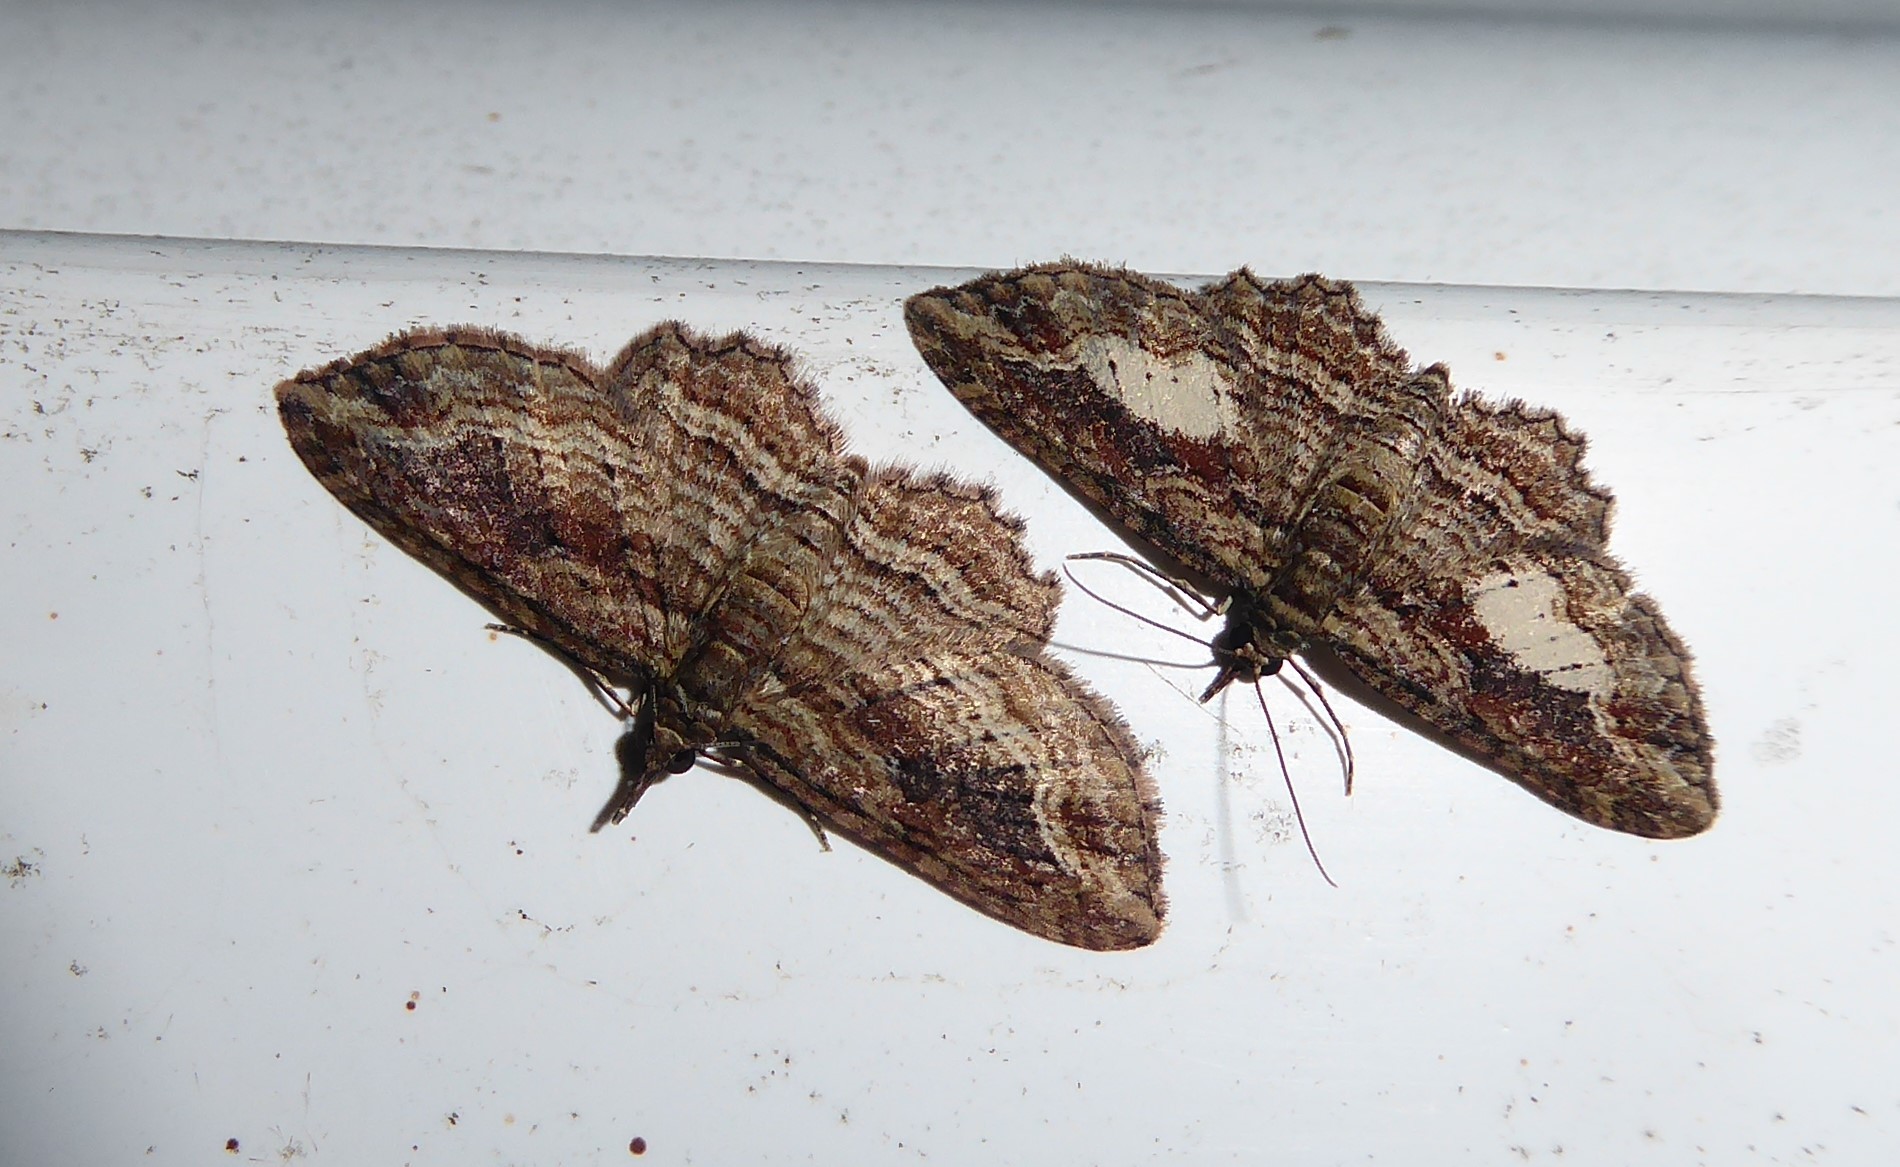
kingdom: Animalia
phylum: Arthropoda
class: Insecta
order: Lepidoptera
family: Geometridae
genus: Chloroclystis
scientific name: Chloroclystis filata
